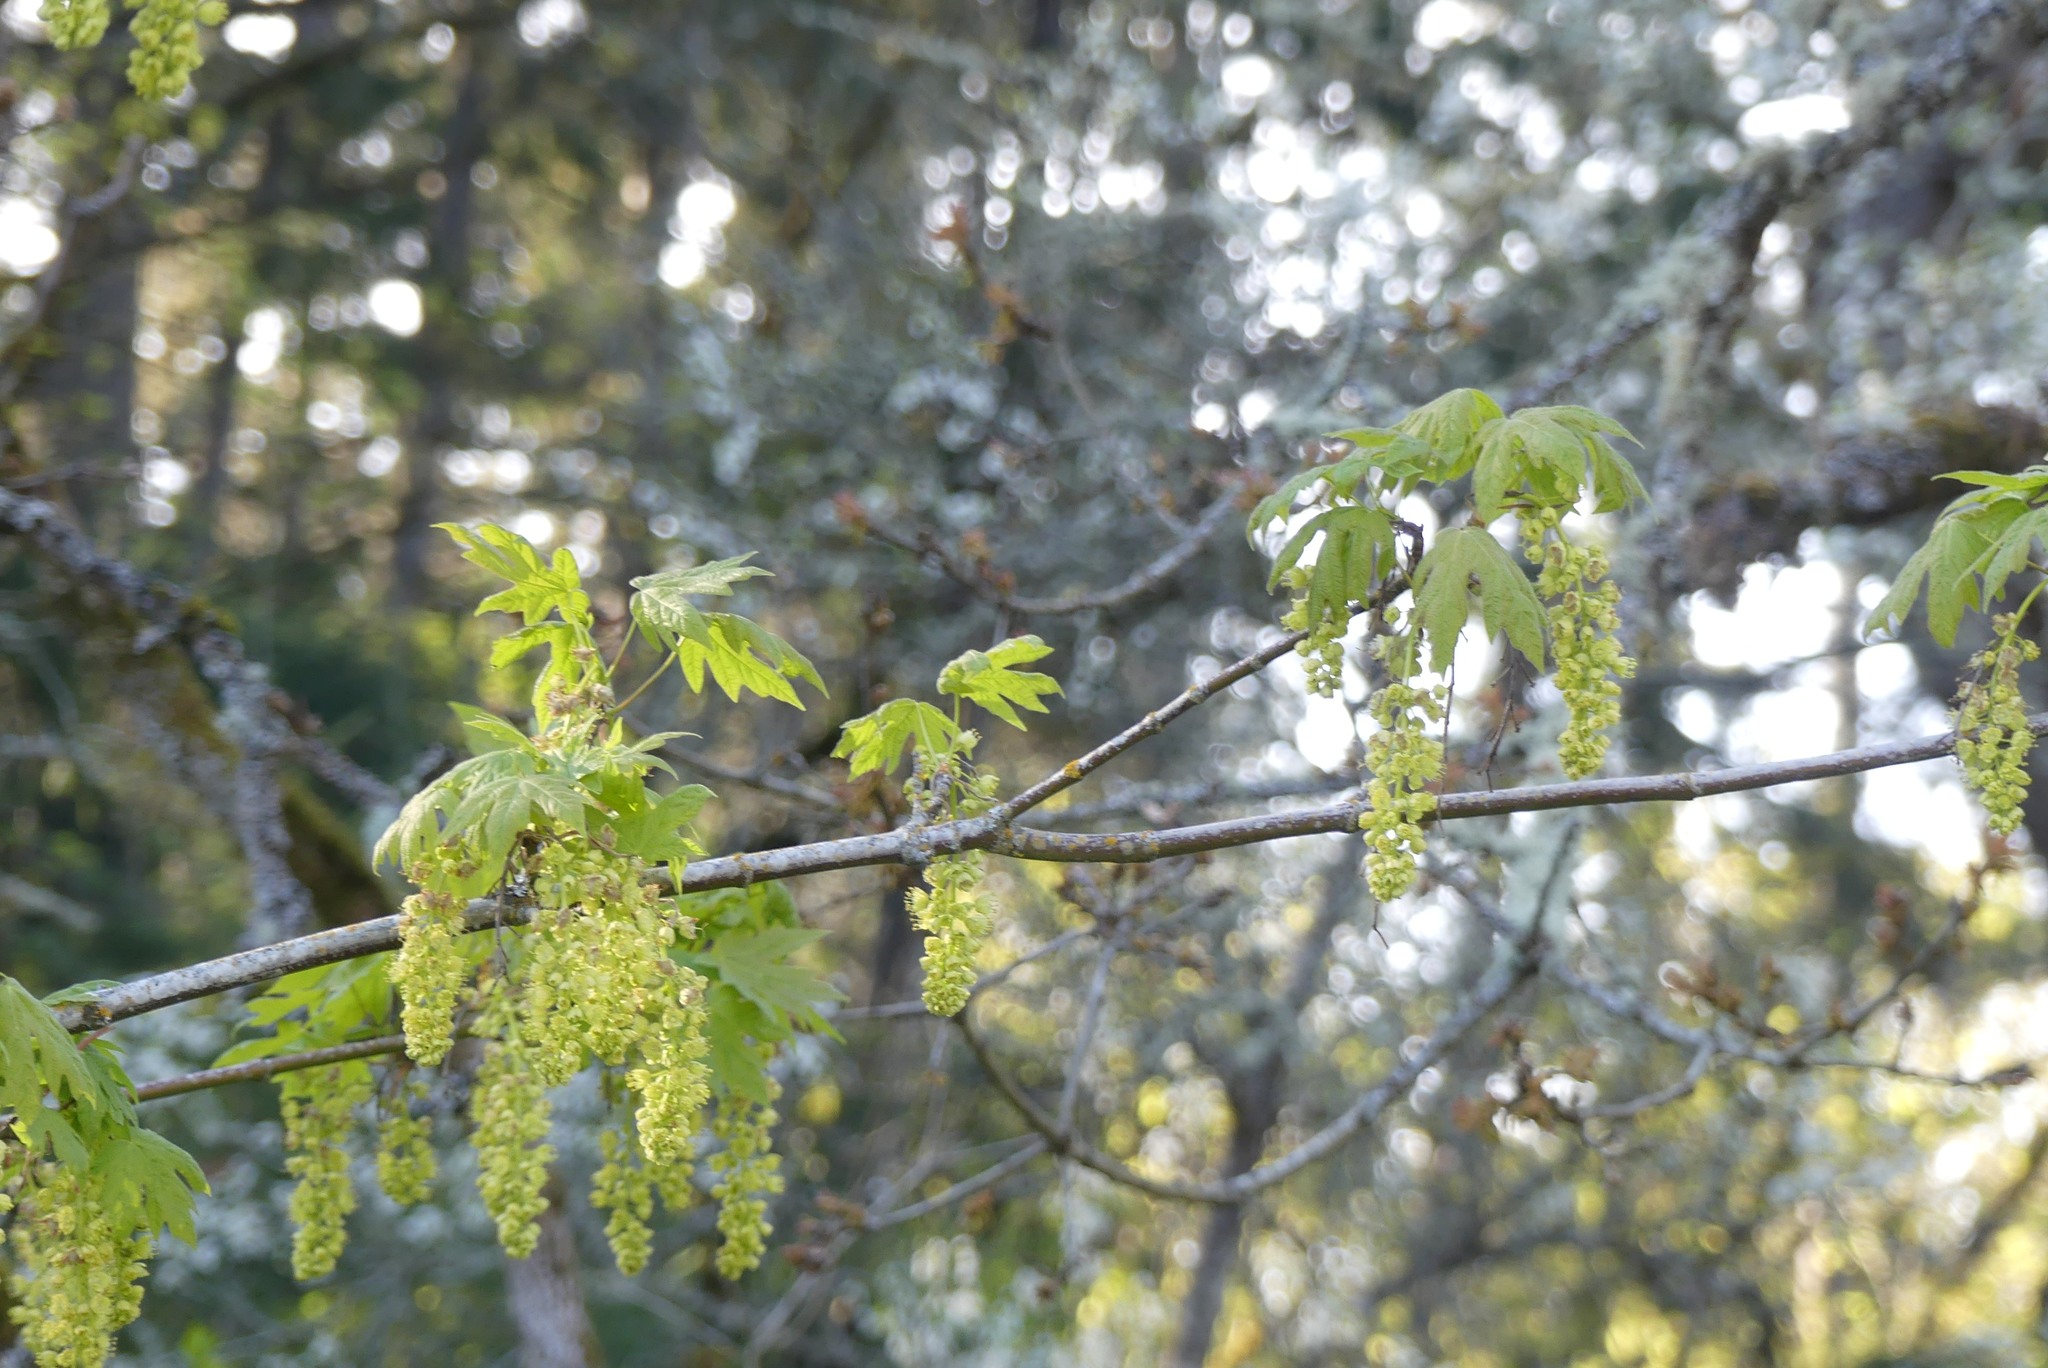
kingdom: Plantae
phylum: Tracheophyta
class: Magnoliopsida
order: Sapindales
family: Sapindaceae
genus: Acer
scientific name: Acer macrophyllum
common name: Oregon maple
